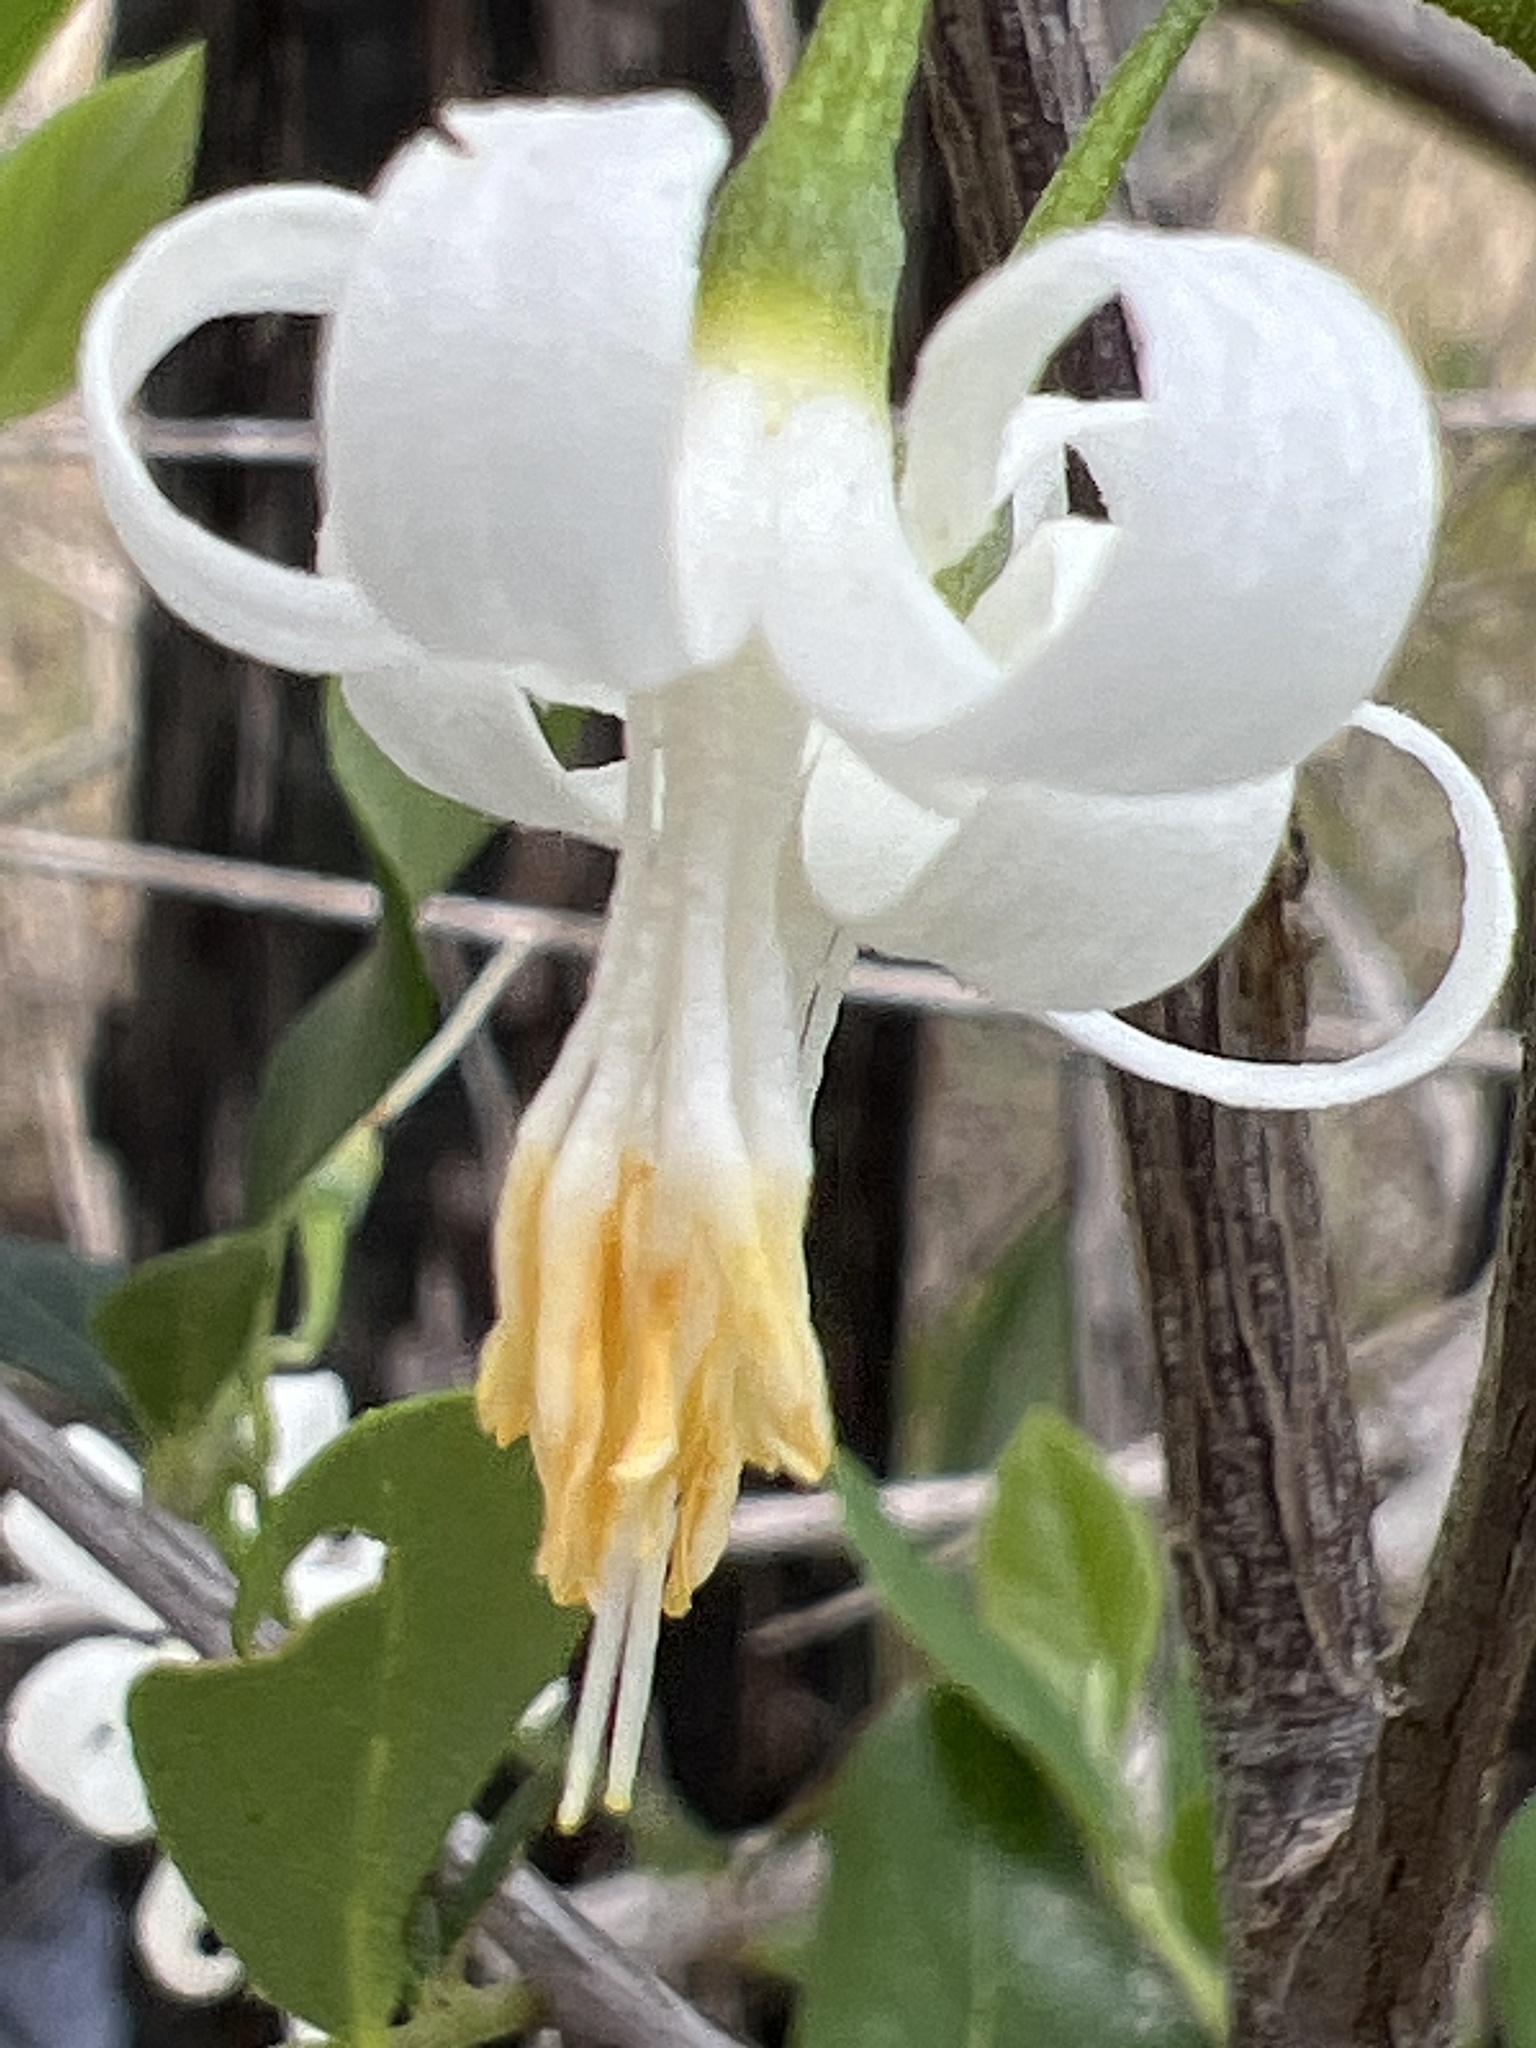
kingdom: Plantae
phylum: Tracheophyta
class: Magnoliopsida
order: Ericales
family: Styracaceae
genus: Styrax
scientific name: Styrax americanus
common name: American snowbell
